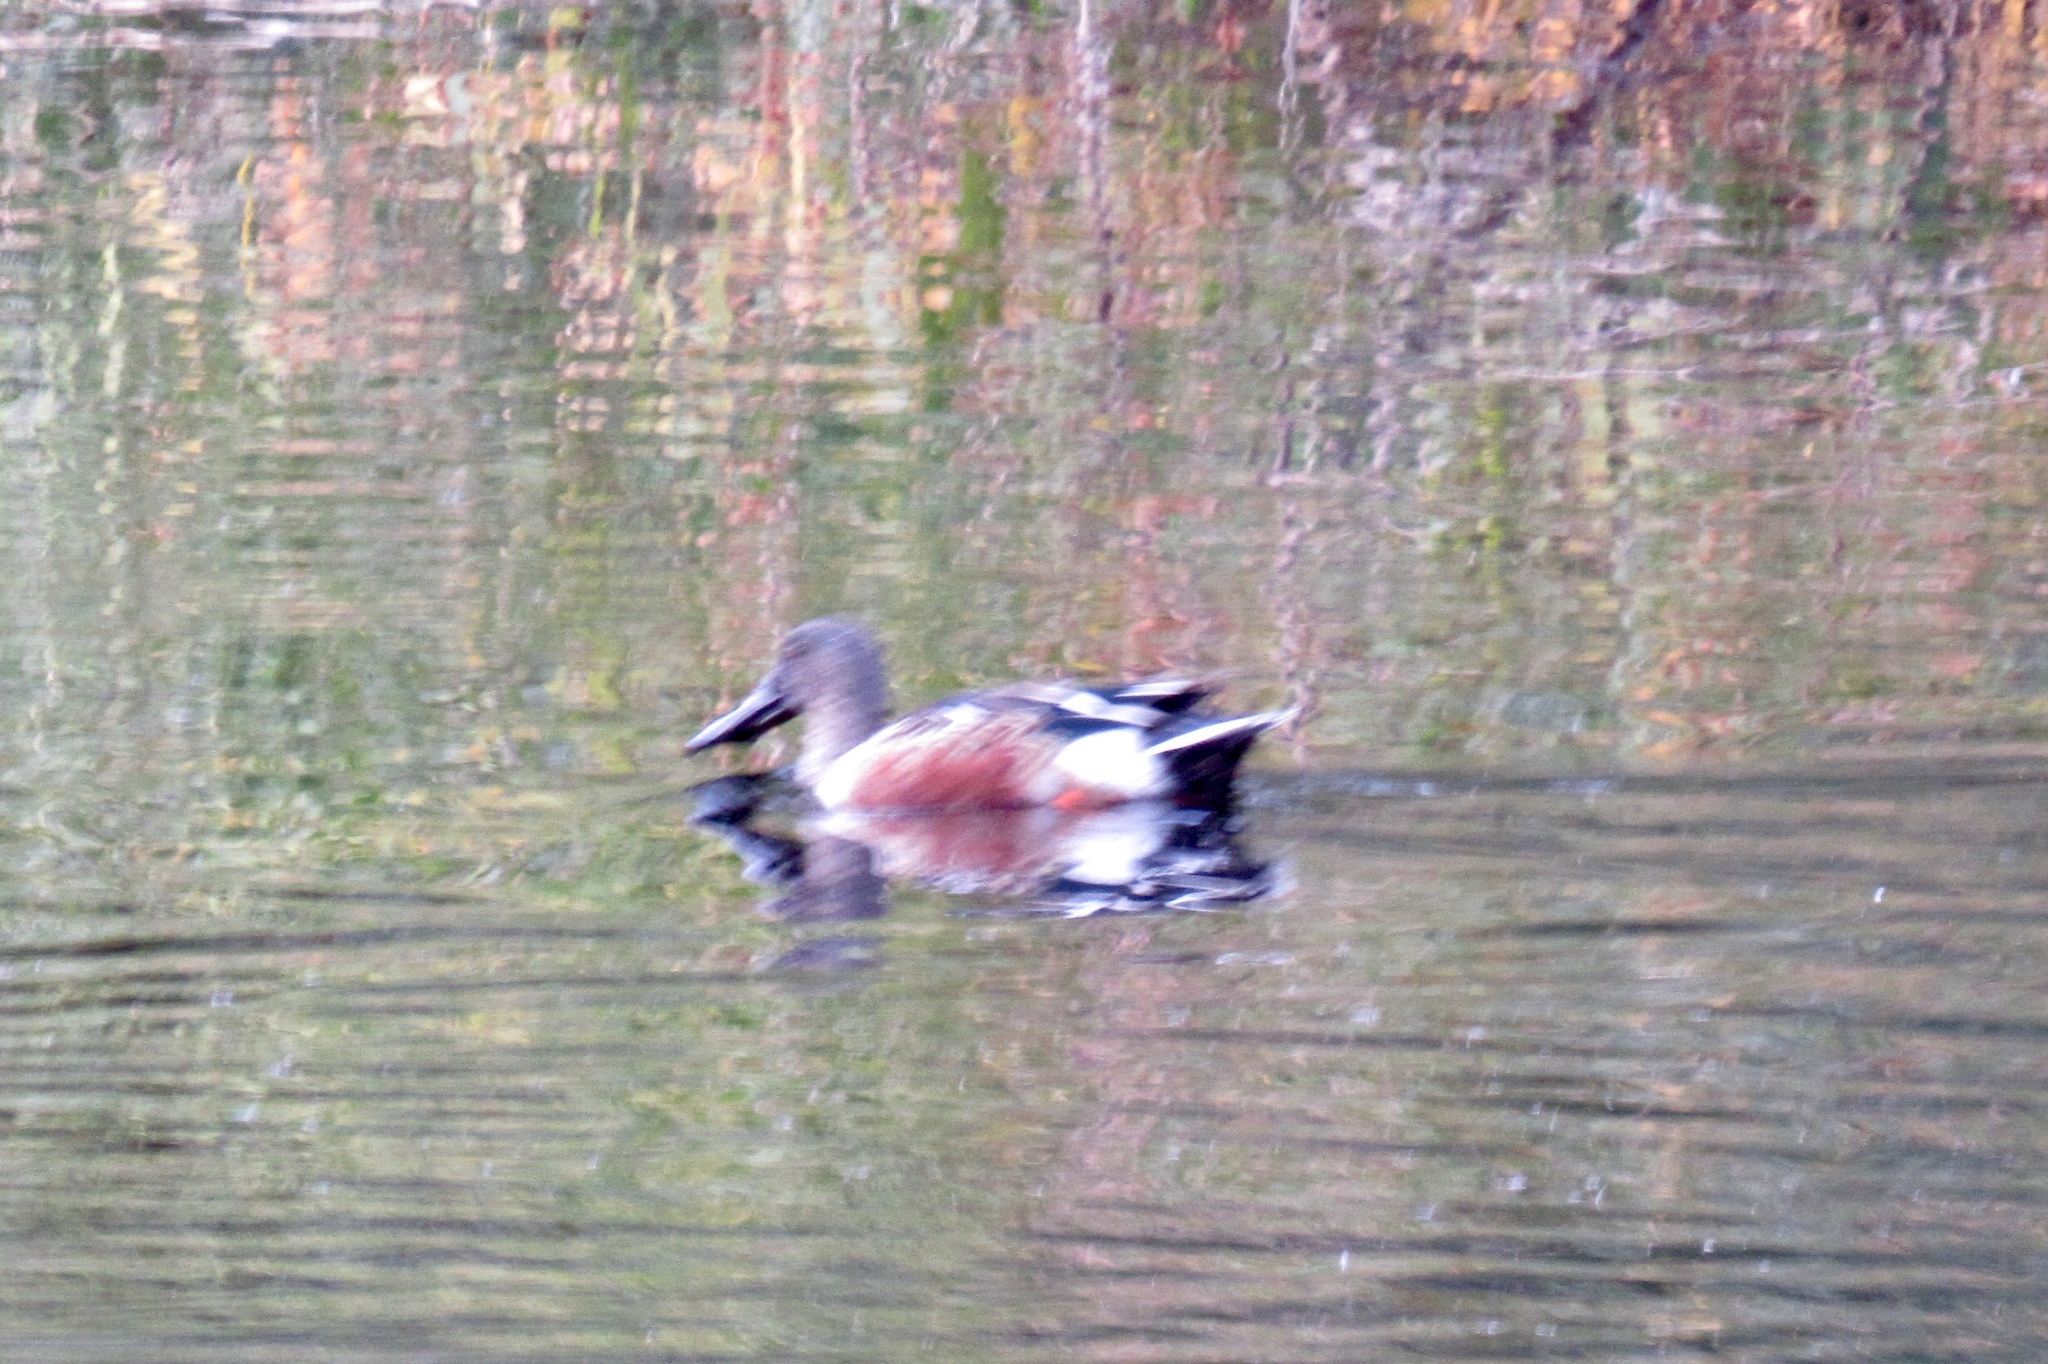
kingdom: Animalia
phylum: Chordata
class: Aves
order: Anseriformes
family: Anatidae
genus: Spatula
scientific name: Spatula clypeata
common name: Northern shoveler
